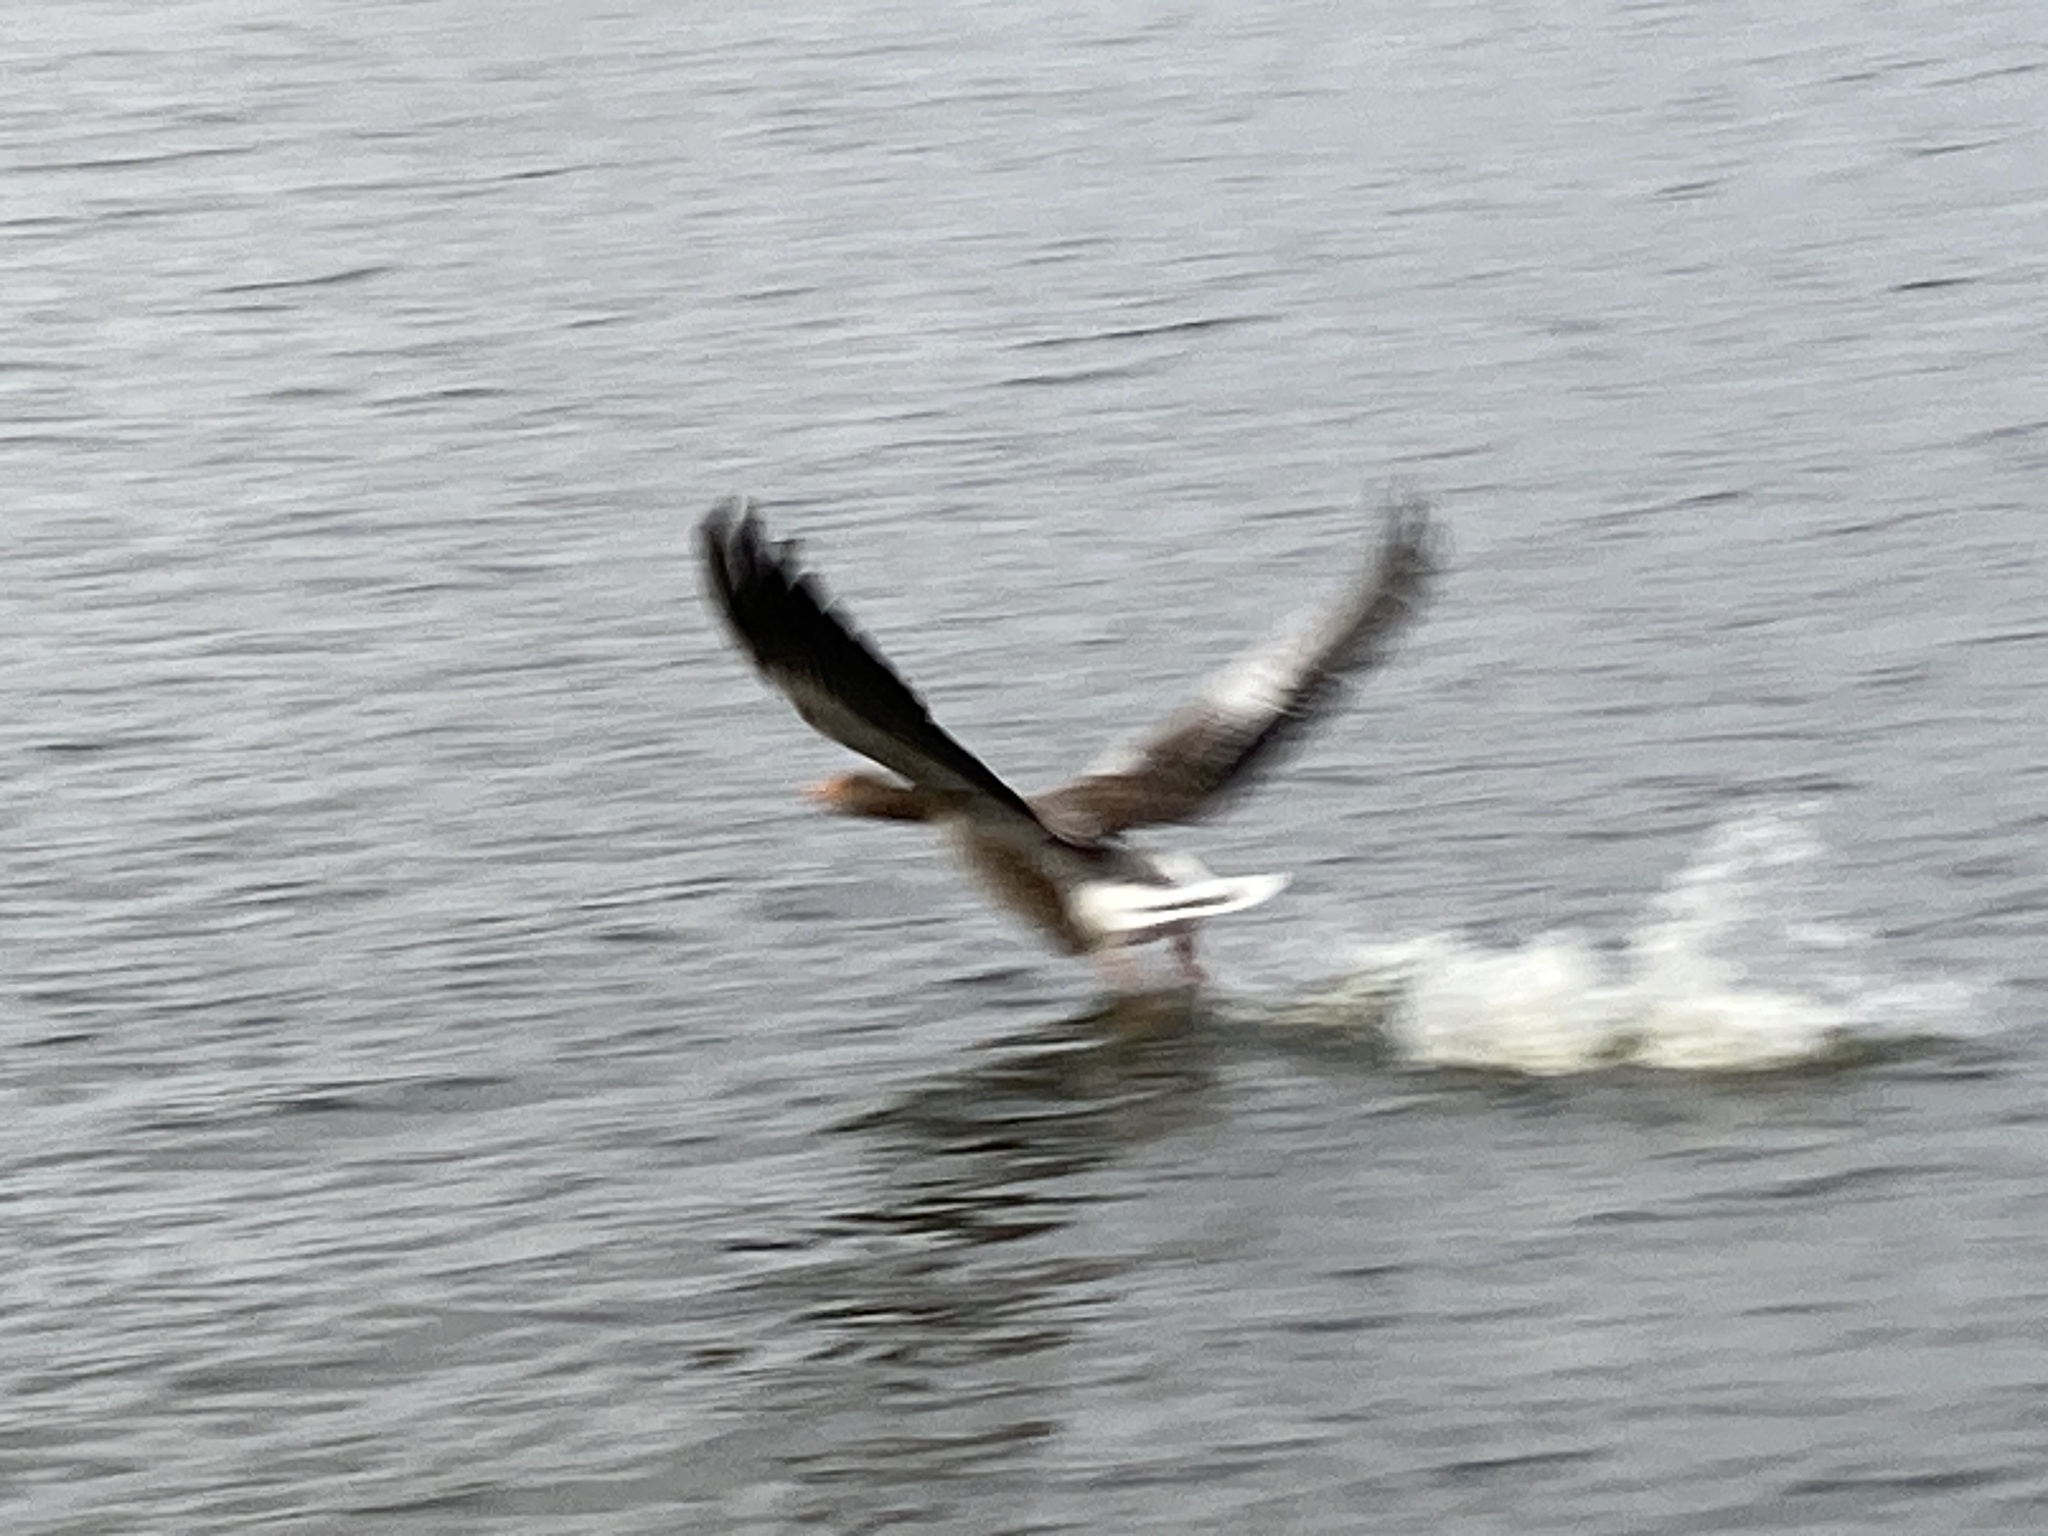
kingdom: Animalia
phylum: Chordata
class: Aves
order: Anseriformes
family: Anatidae
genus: Anser
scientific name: Anser anser
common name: Greylag goose
